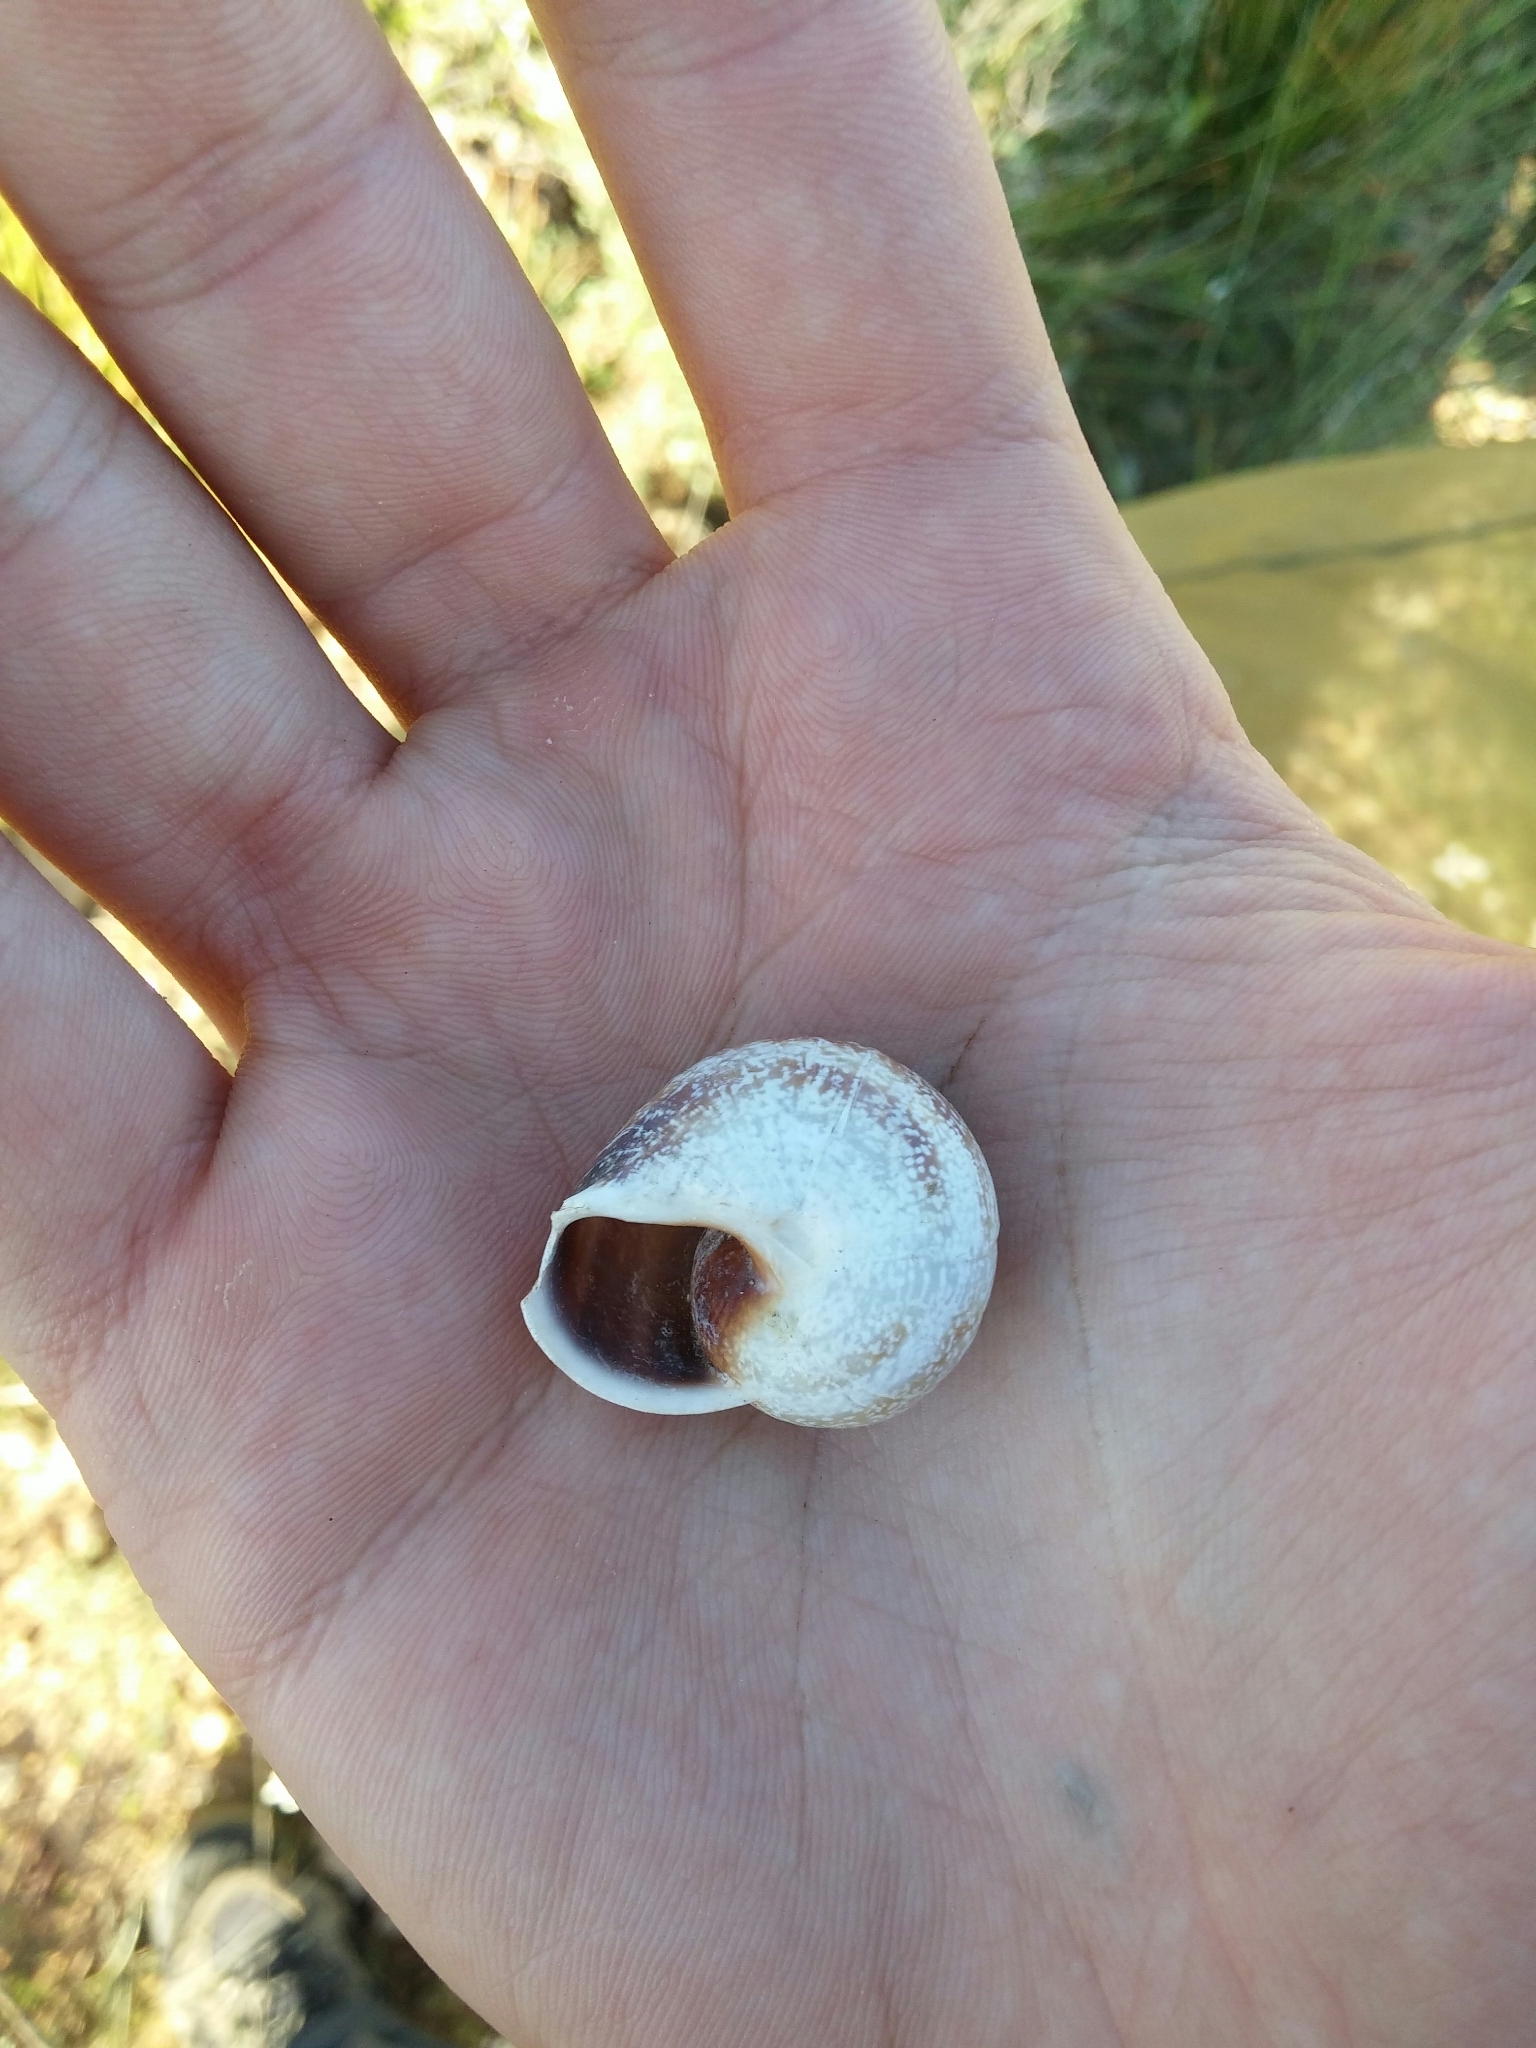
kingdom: Animalia
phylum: Mollusca
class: Gastropoda
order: Stylommatophora
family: Helicidae
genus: Otala
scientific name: Otala punctata
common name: Milk snail
